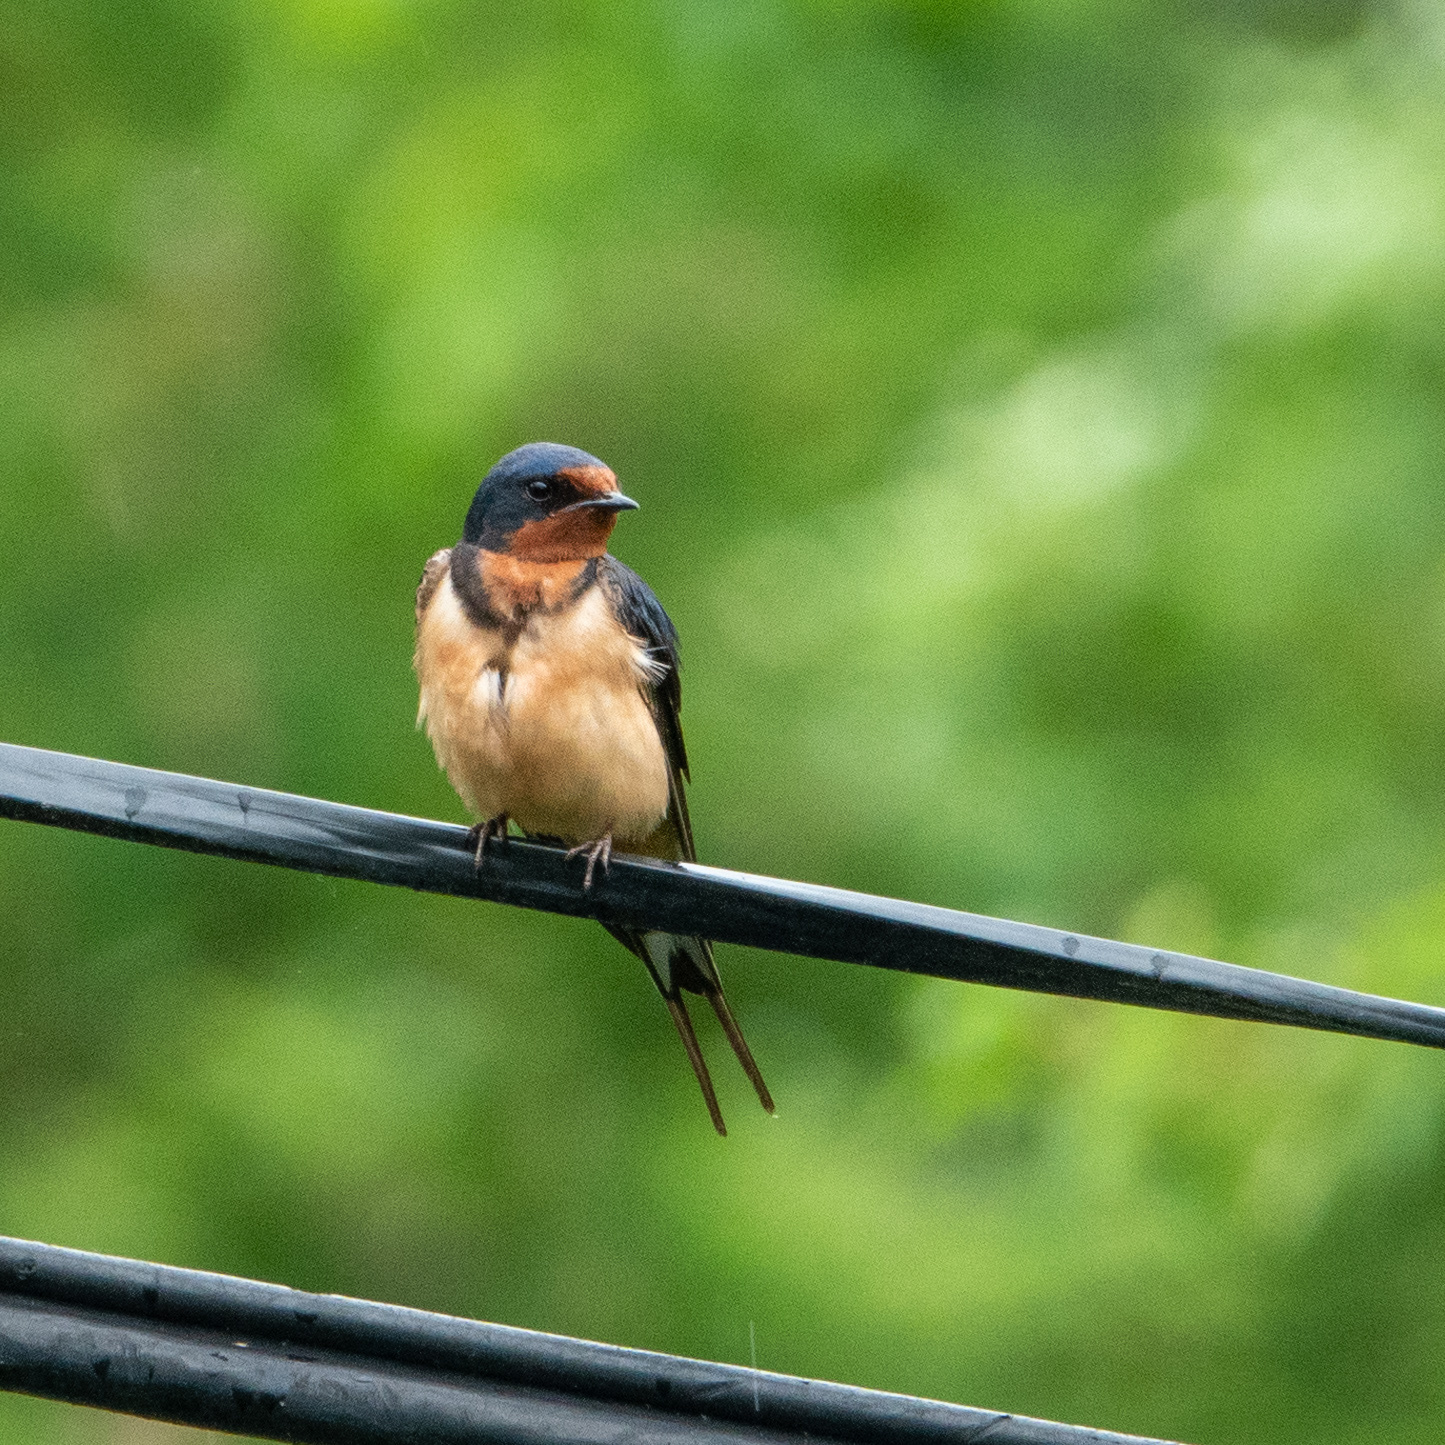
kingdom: Animalia
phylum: Chordata
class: Aves
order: Passeriformes
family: Hirundinidae
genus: Hirundo
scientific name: Hirundo rustica
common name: Barn swallow
